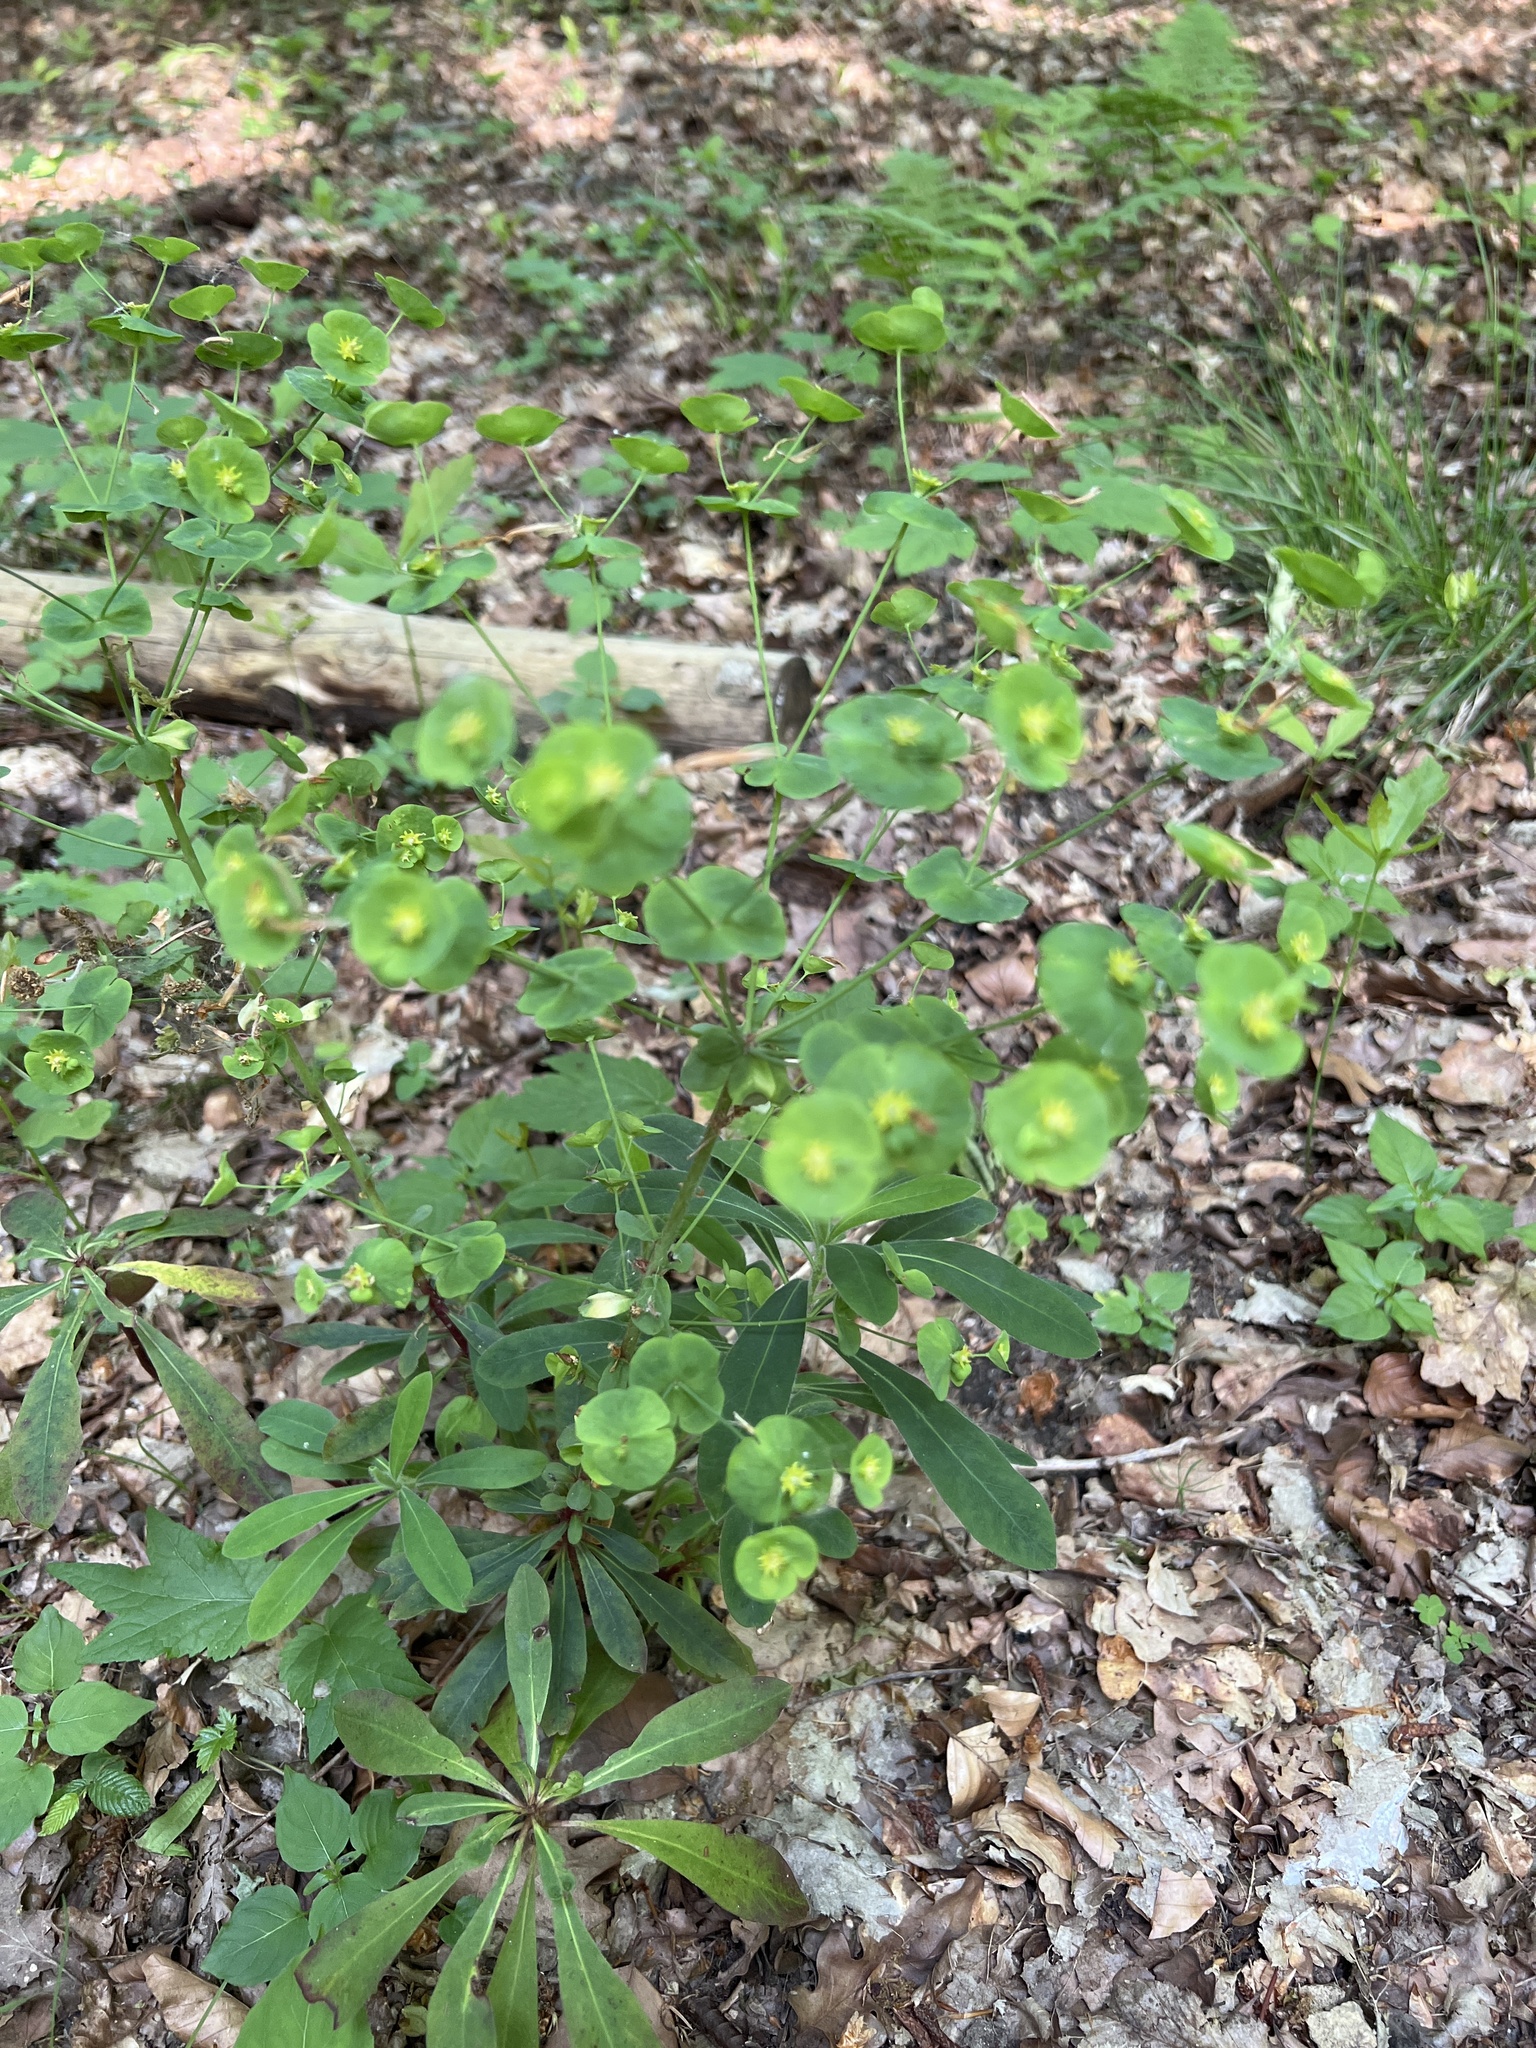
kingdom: Plantae
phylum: Tracheophyta
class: Magnoliopsida
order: Malpighiales
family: Euphorbiaceae
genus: Euphorbia
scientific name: Euphorbia amygdaloides
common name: Wood spurge
